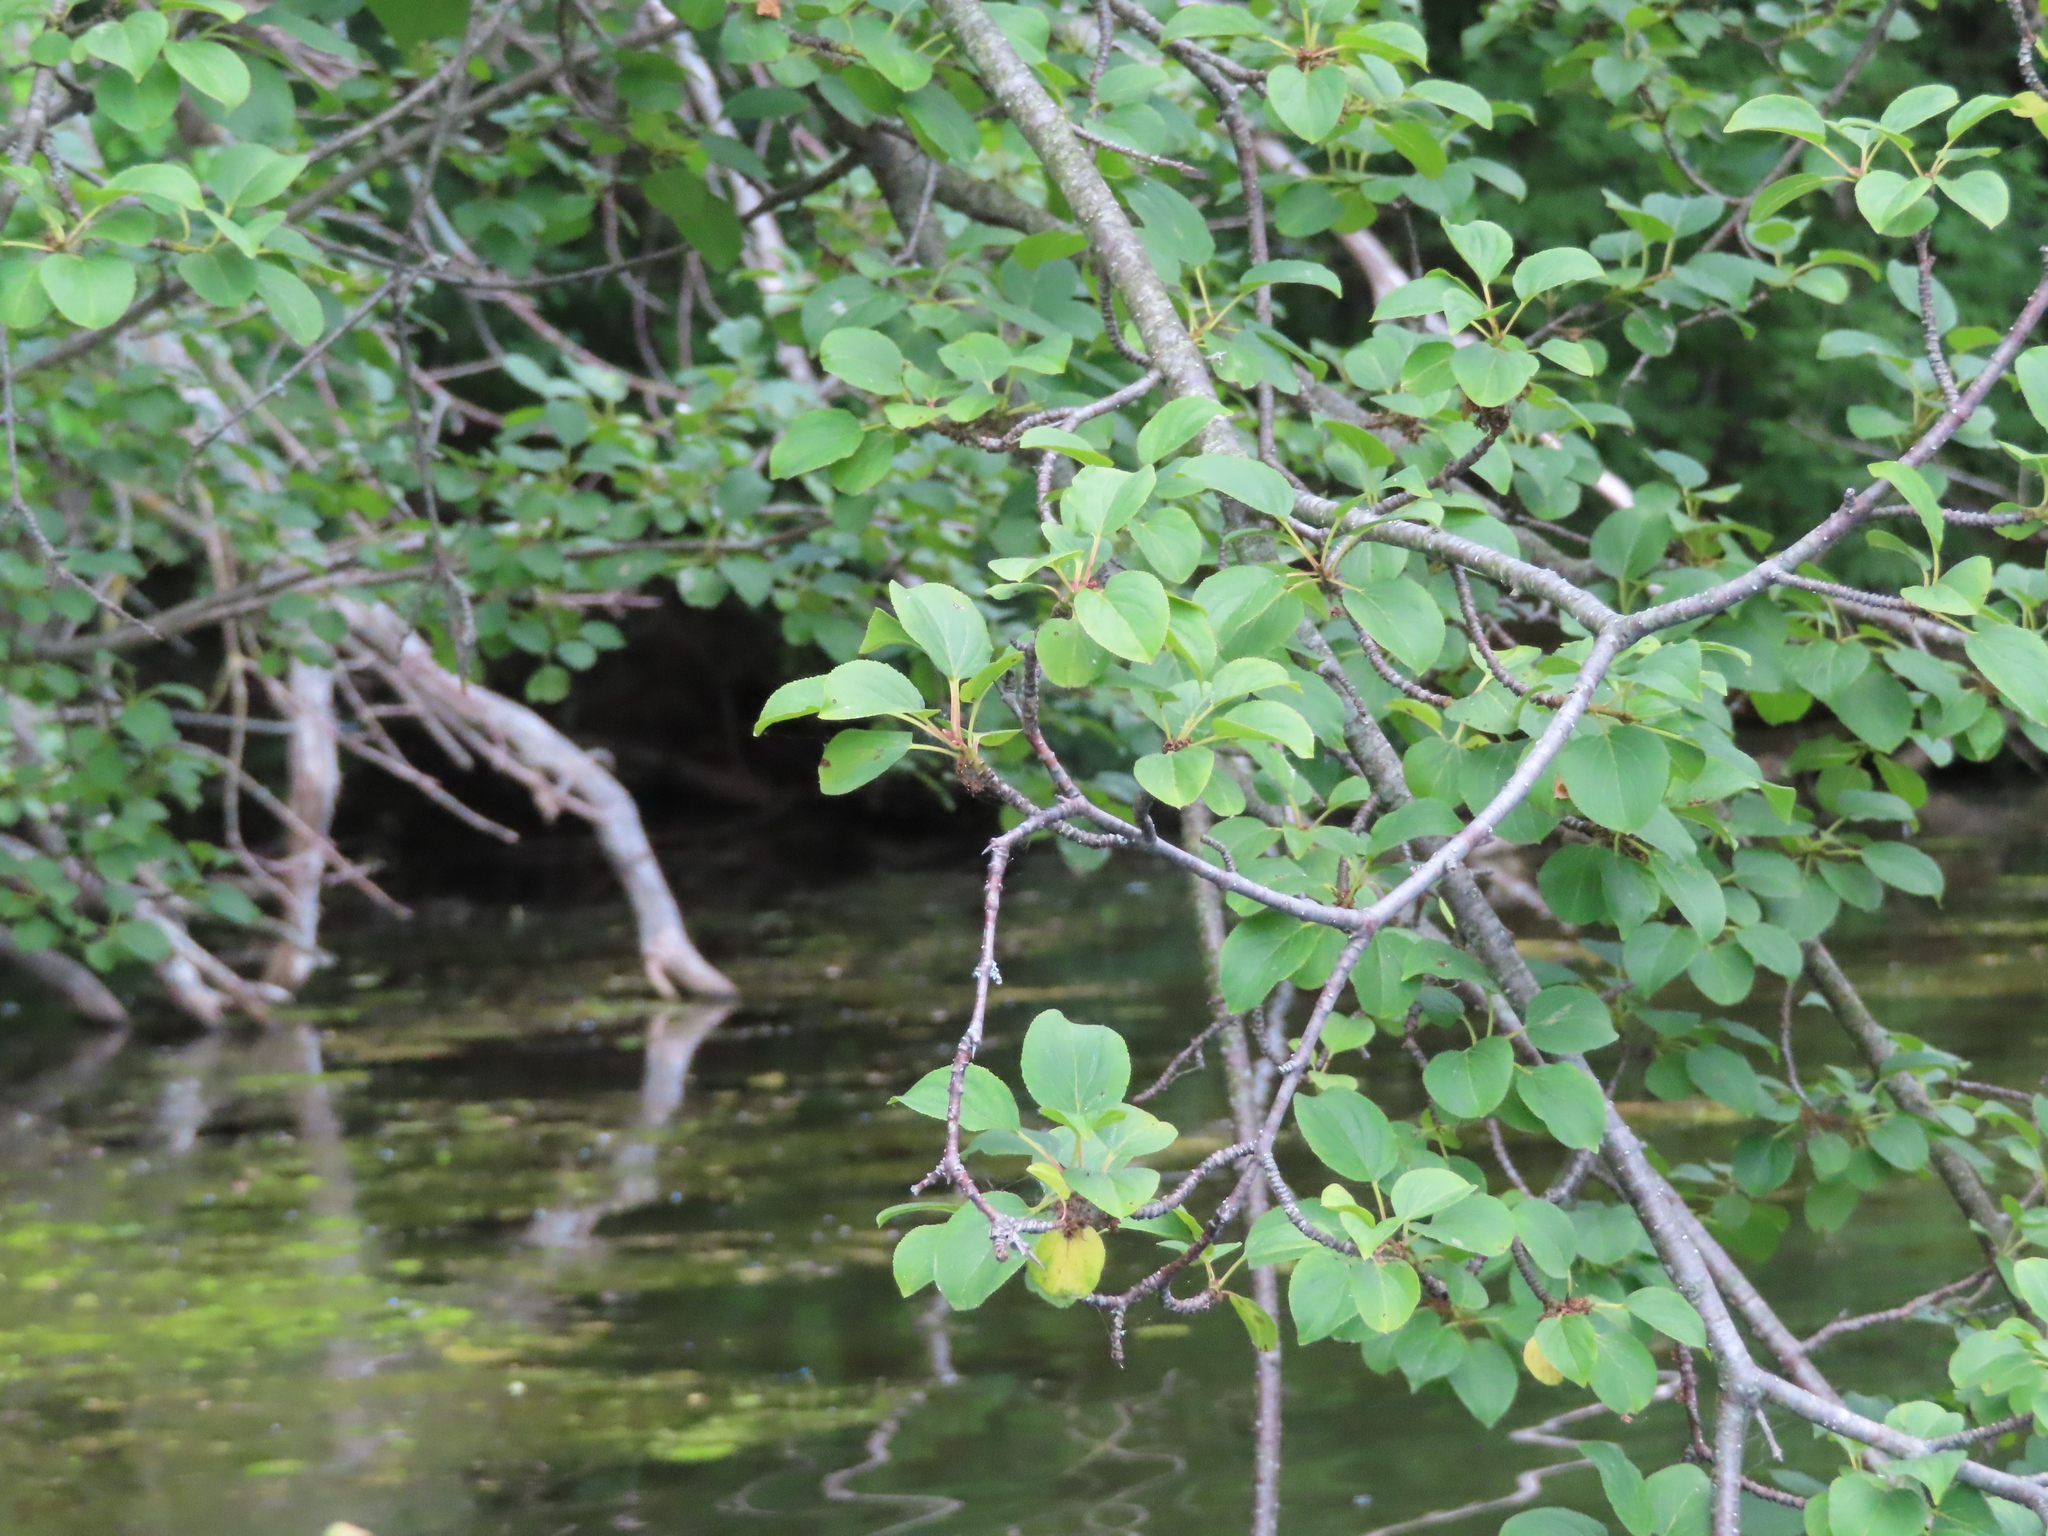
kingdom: Plantae
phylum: Tracheophyta
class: Magnoliopsida
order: Rosales
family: Rhamnaceae
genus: Rhamnus
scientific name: Rhamnus cathartica
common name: Common buckthorn
